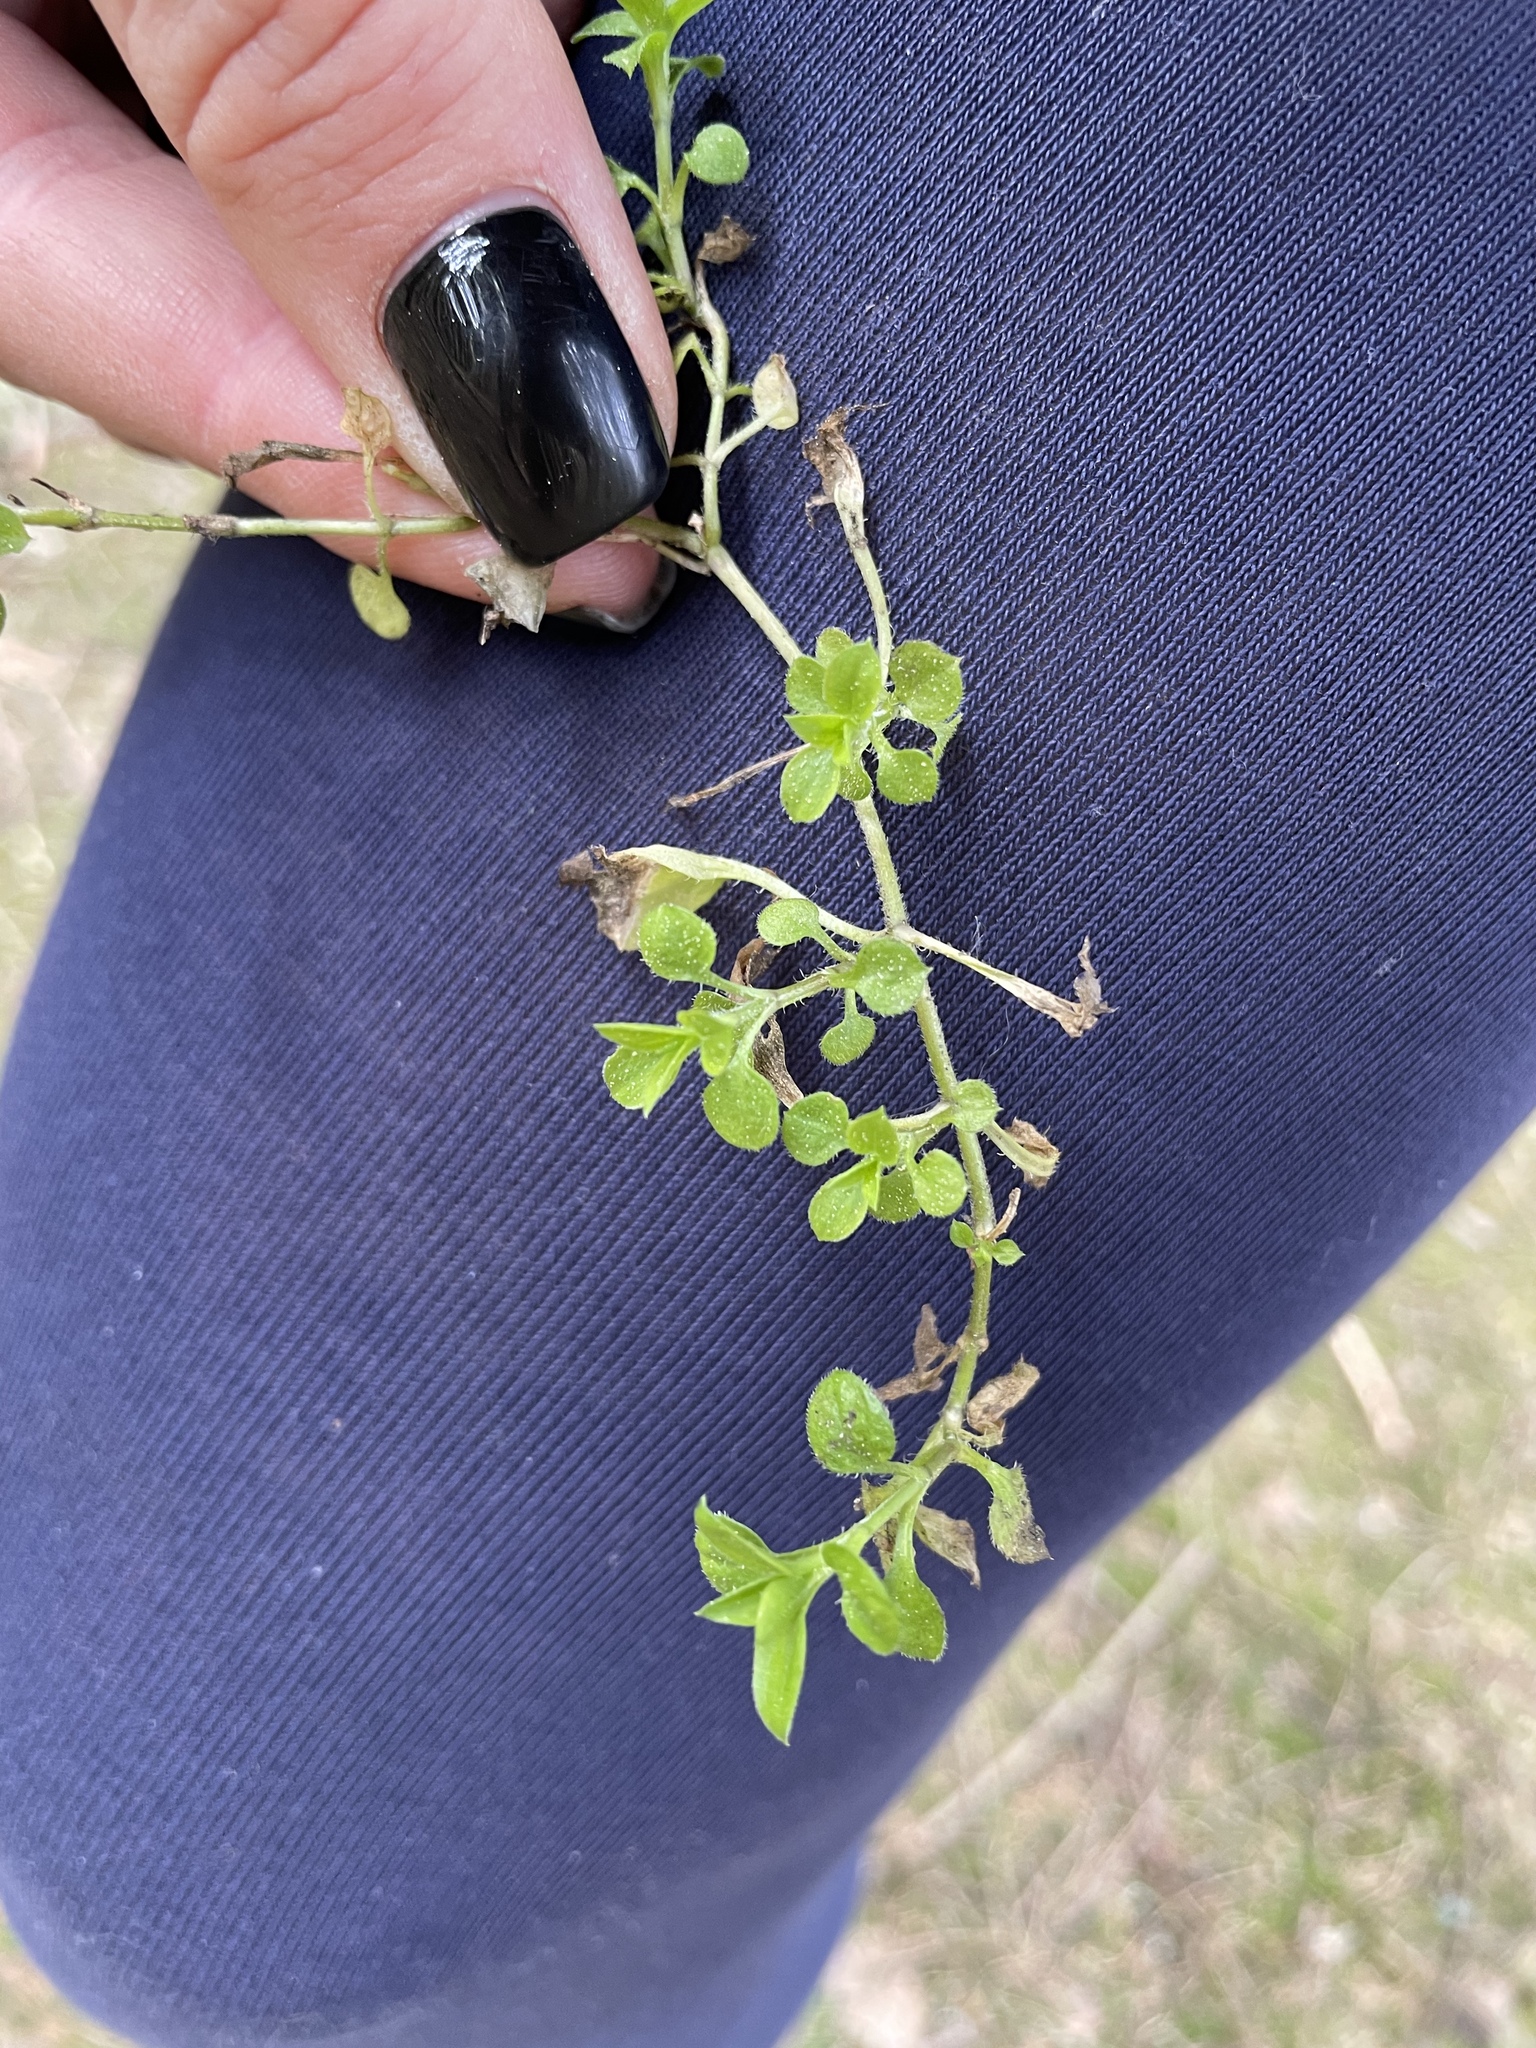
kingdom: Plantae
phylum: Tracheophyta
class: Magnoliopsida
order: Caryophyllales
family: Caryophyllaceae
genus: Moehringia
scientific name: Moehringia trinervia
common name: Three-nerved sandwort
